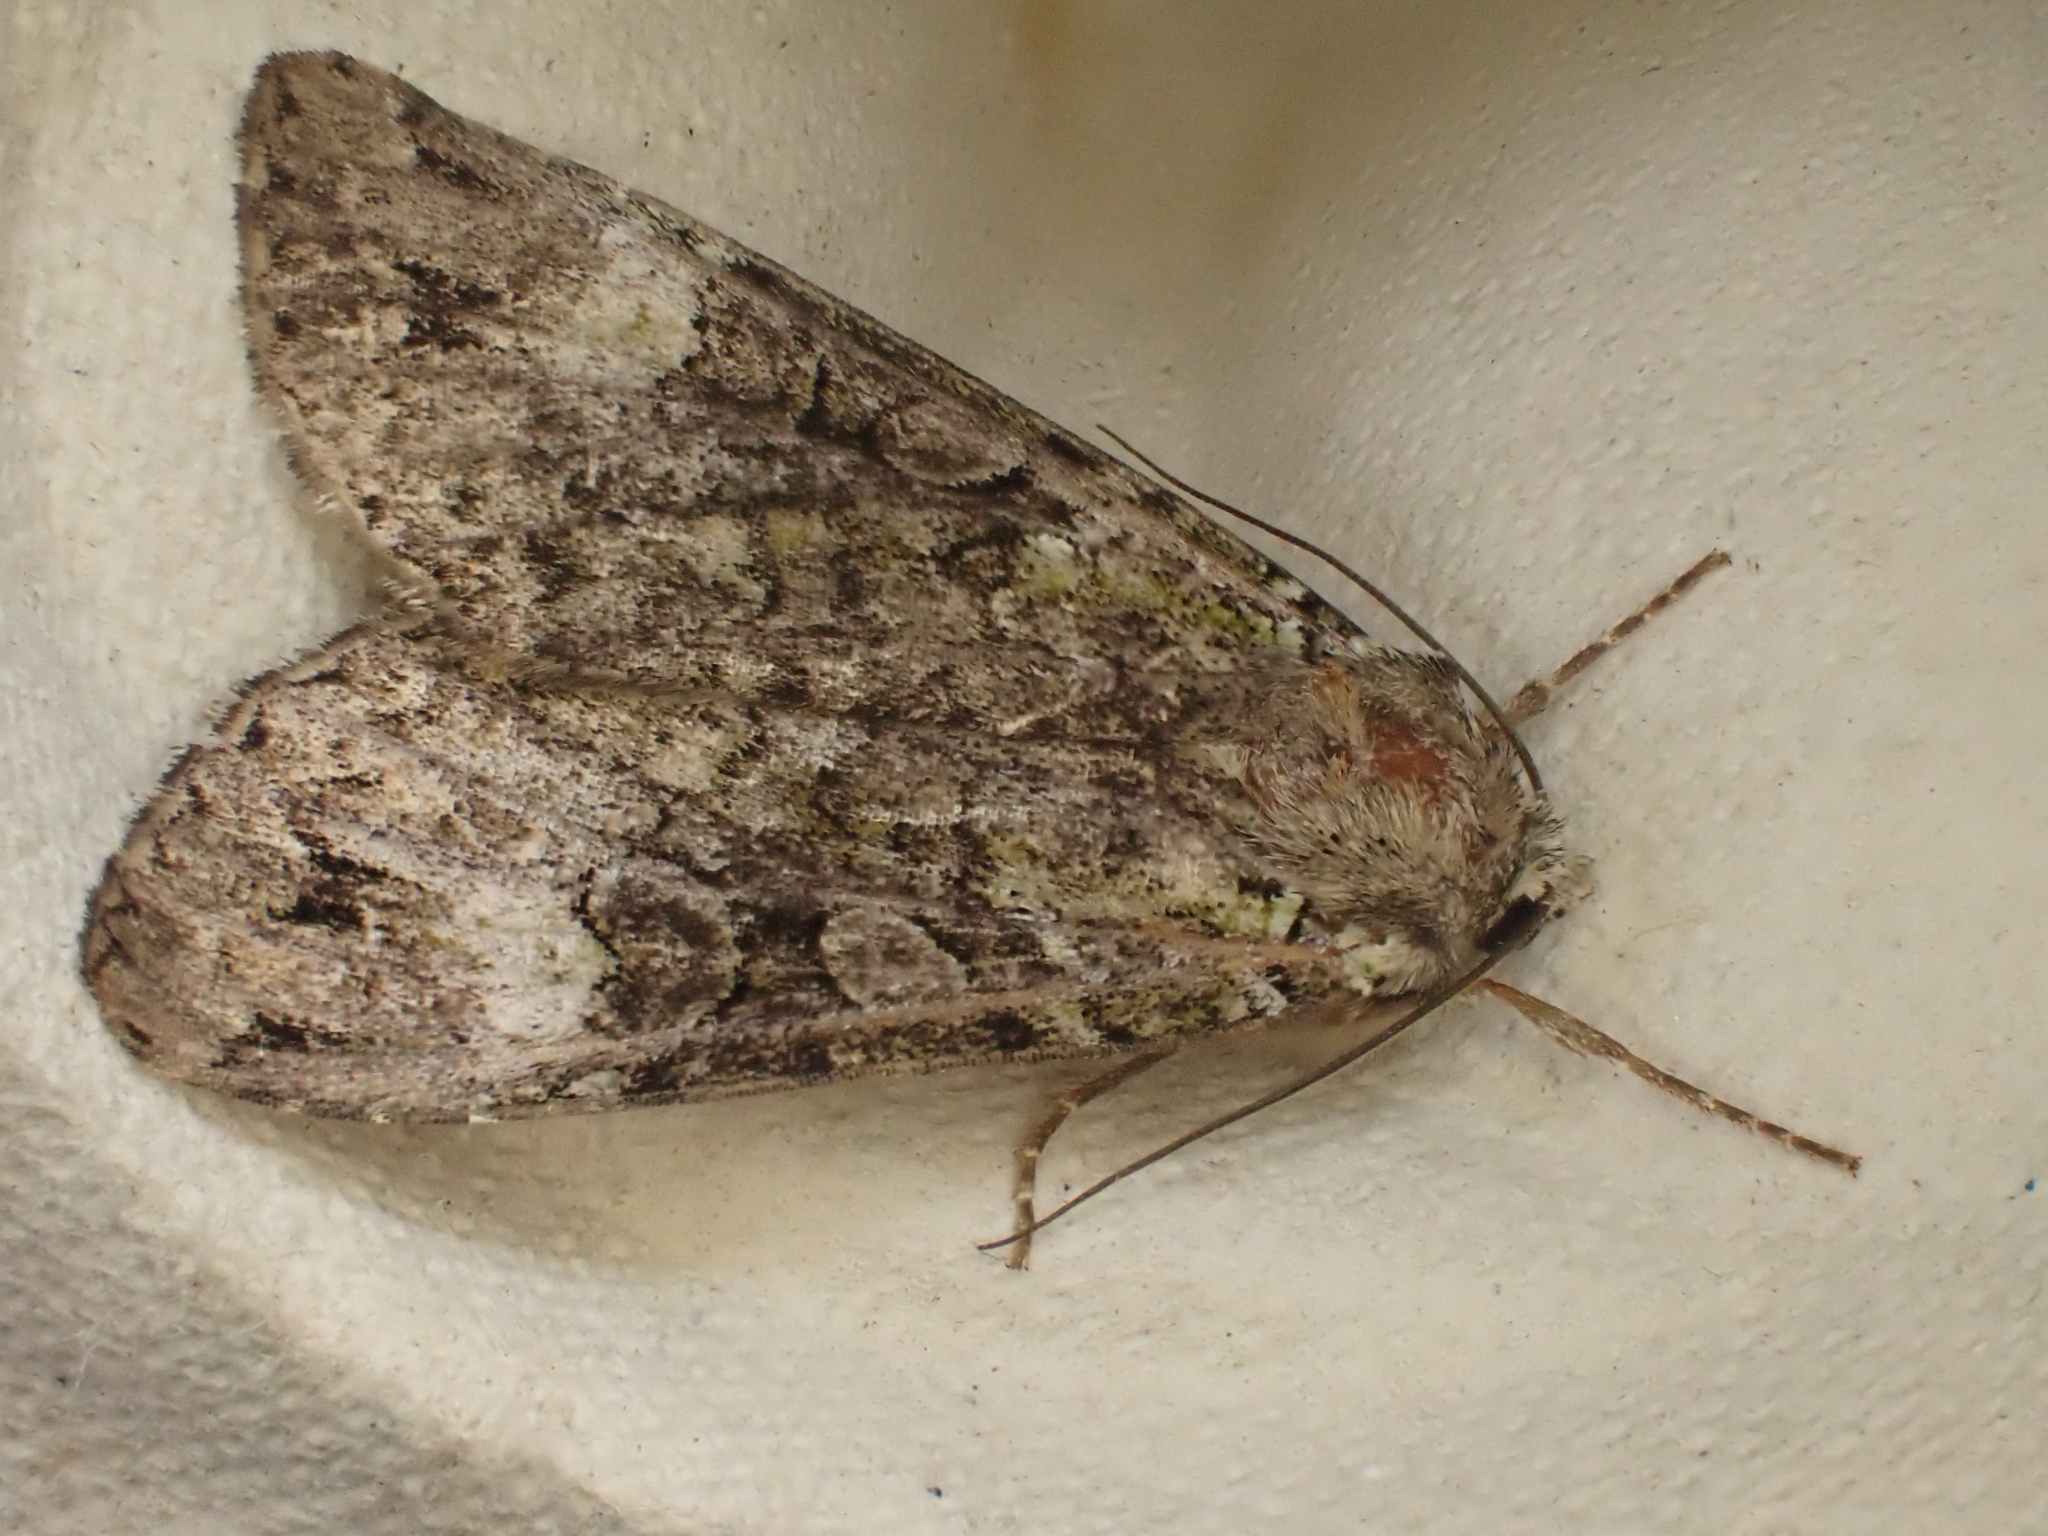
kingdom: Animalia
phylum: Arthropoda
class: Insecta
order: Lepidoptera
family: Noctuidae
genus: Anaplectoides
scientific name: Anaplectoides prasina
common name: Green arches
